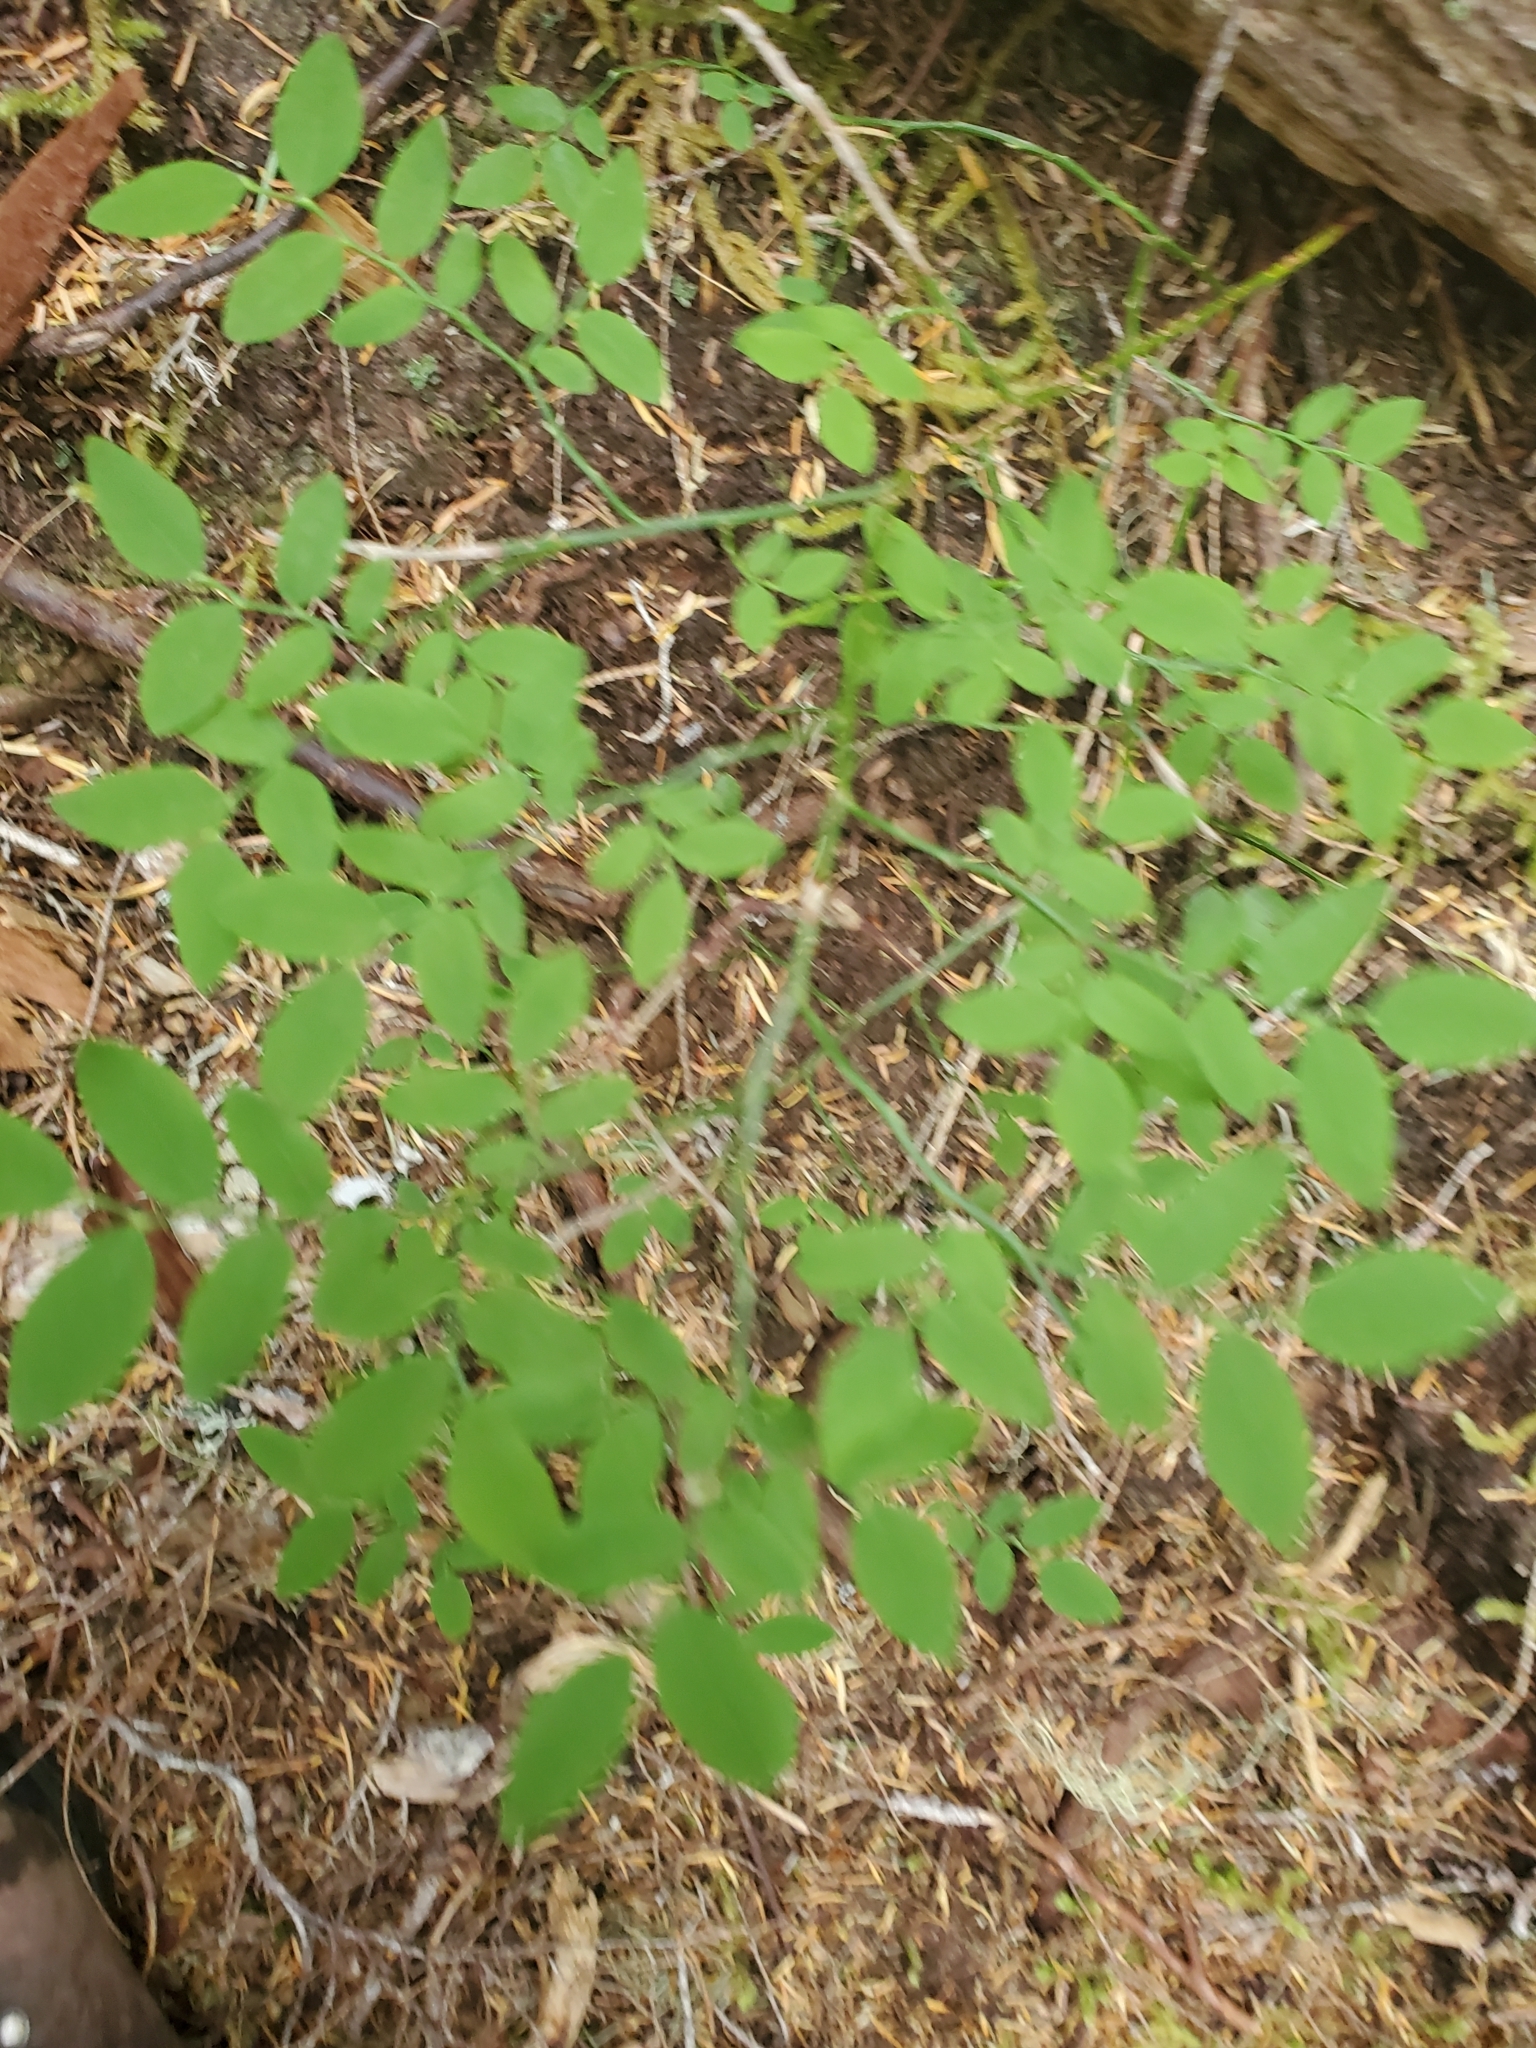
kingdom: Plantae
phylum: Tracheophyta
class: Magnoliopsida
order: Ericales
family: Ericaceae
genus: Vaccinium
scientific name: Vaccinium parvifolium
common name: Red-huckleberry
